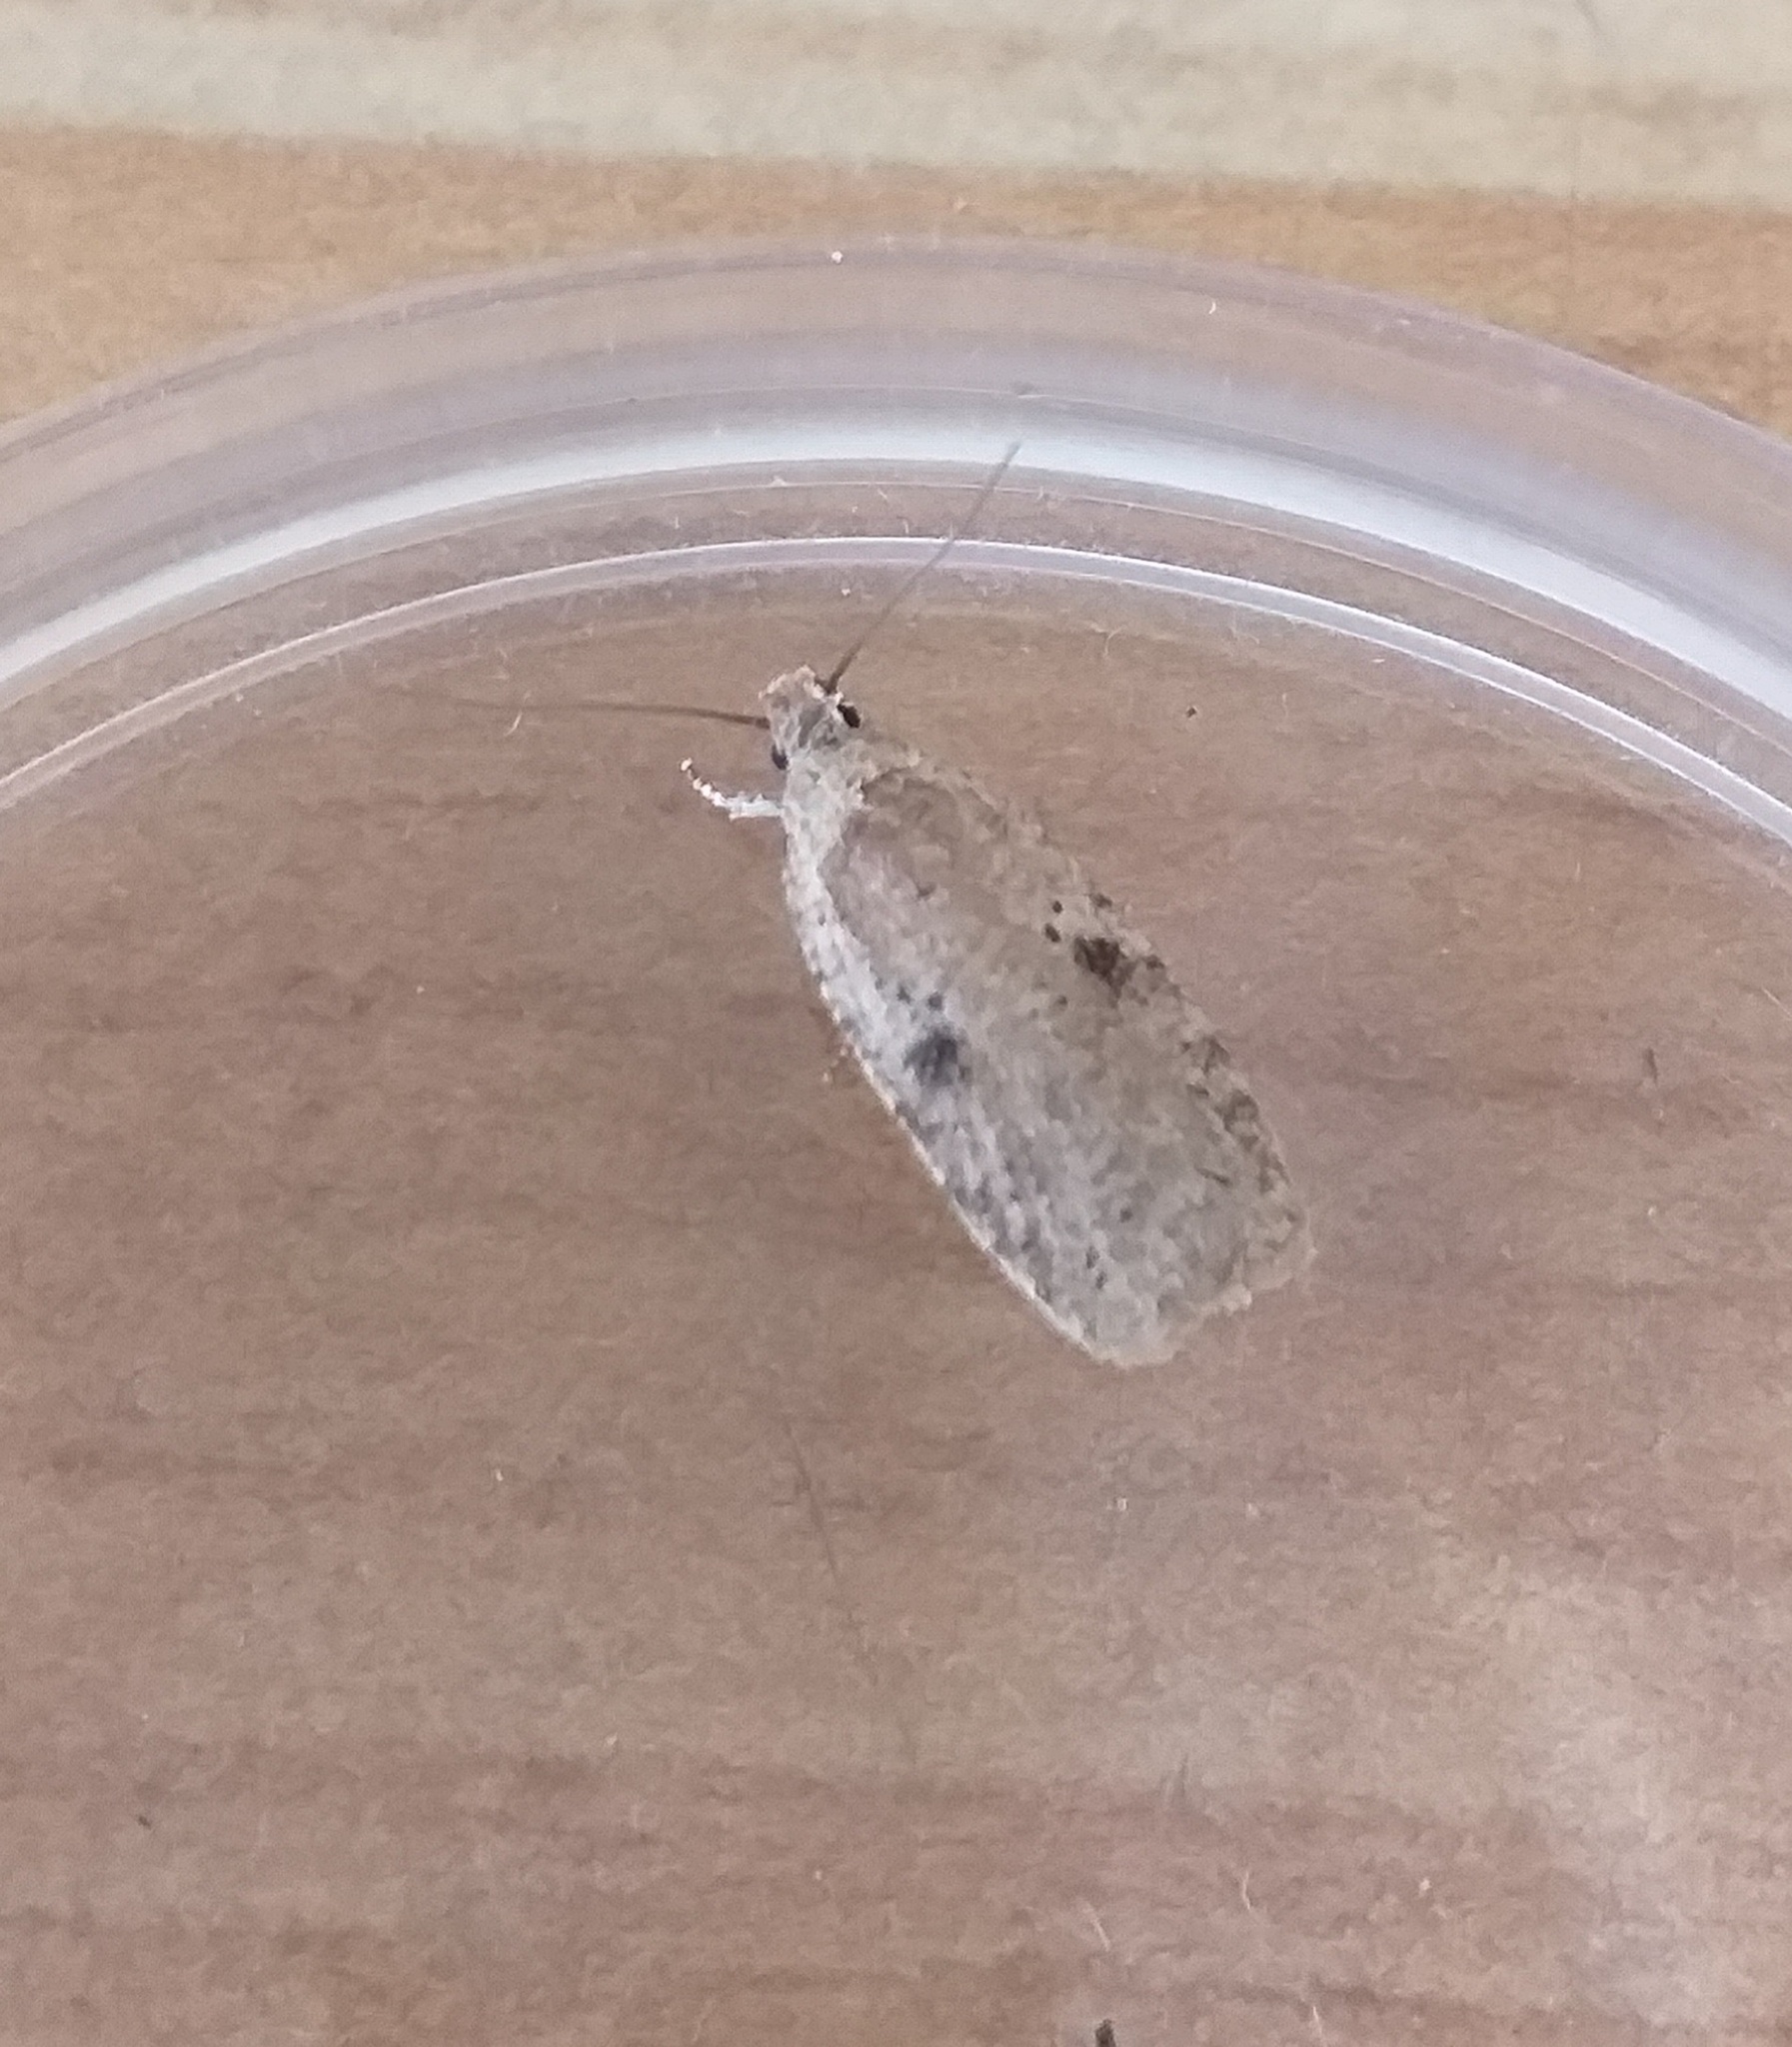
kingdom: Animalia
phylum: Arthropoda
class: Insecta
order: Lepidoptera
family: Depressariidae
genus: Agonopterix
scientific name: Agonopterix arenella
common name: Brindled flat-body
